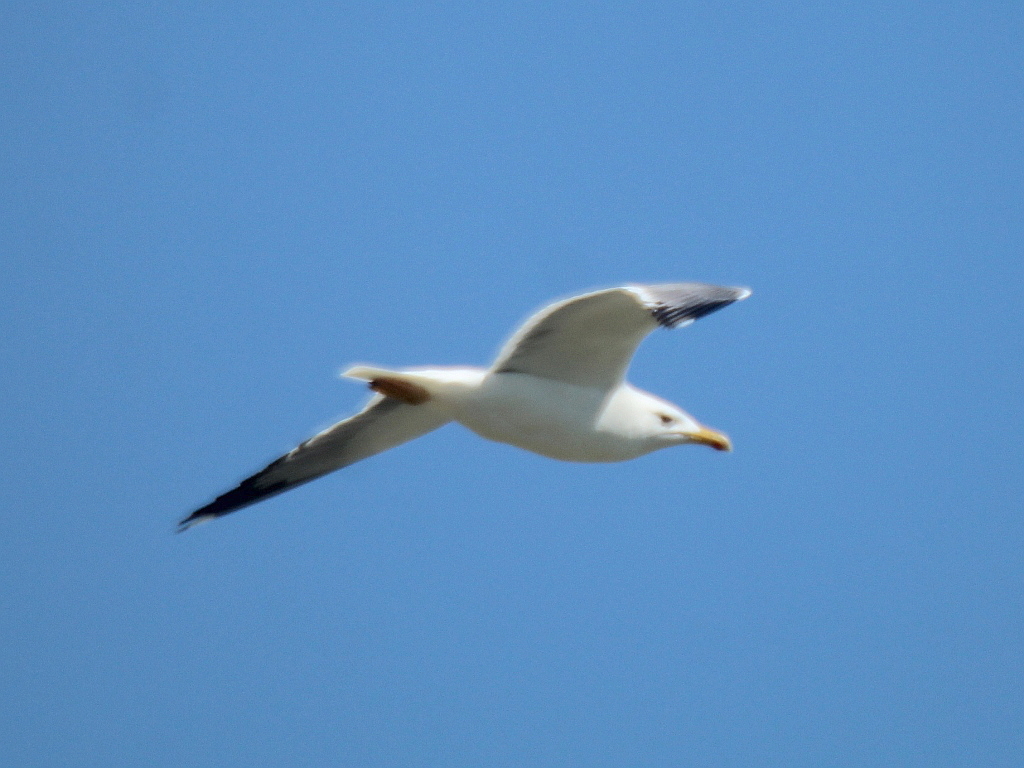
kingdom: Animalia
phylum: Chordata
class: Aves
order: Charadriiformes
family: Laridae
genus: Larus
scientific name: Larus fuscus
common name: Lesser black-backed gull
